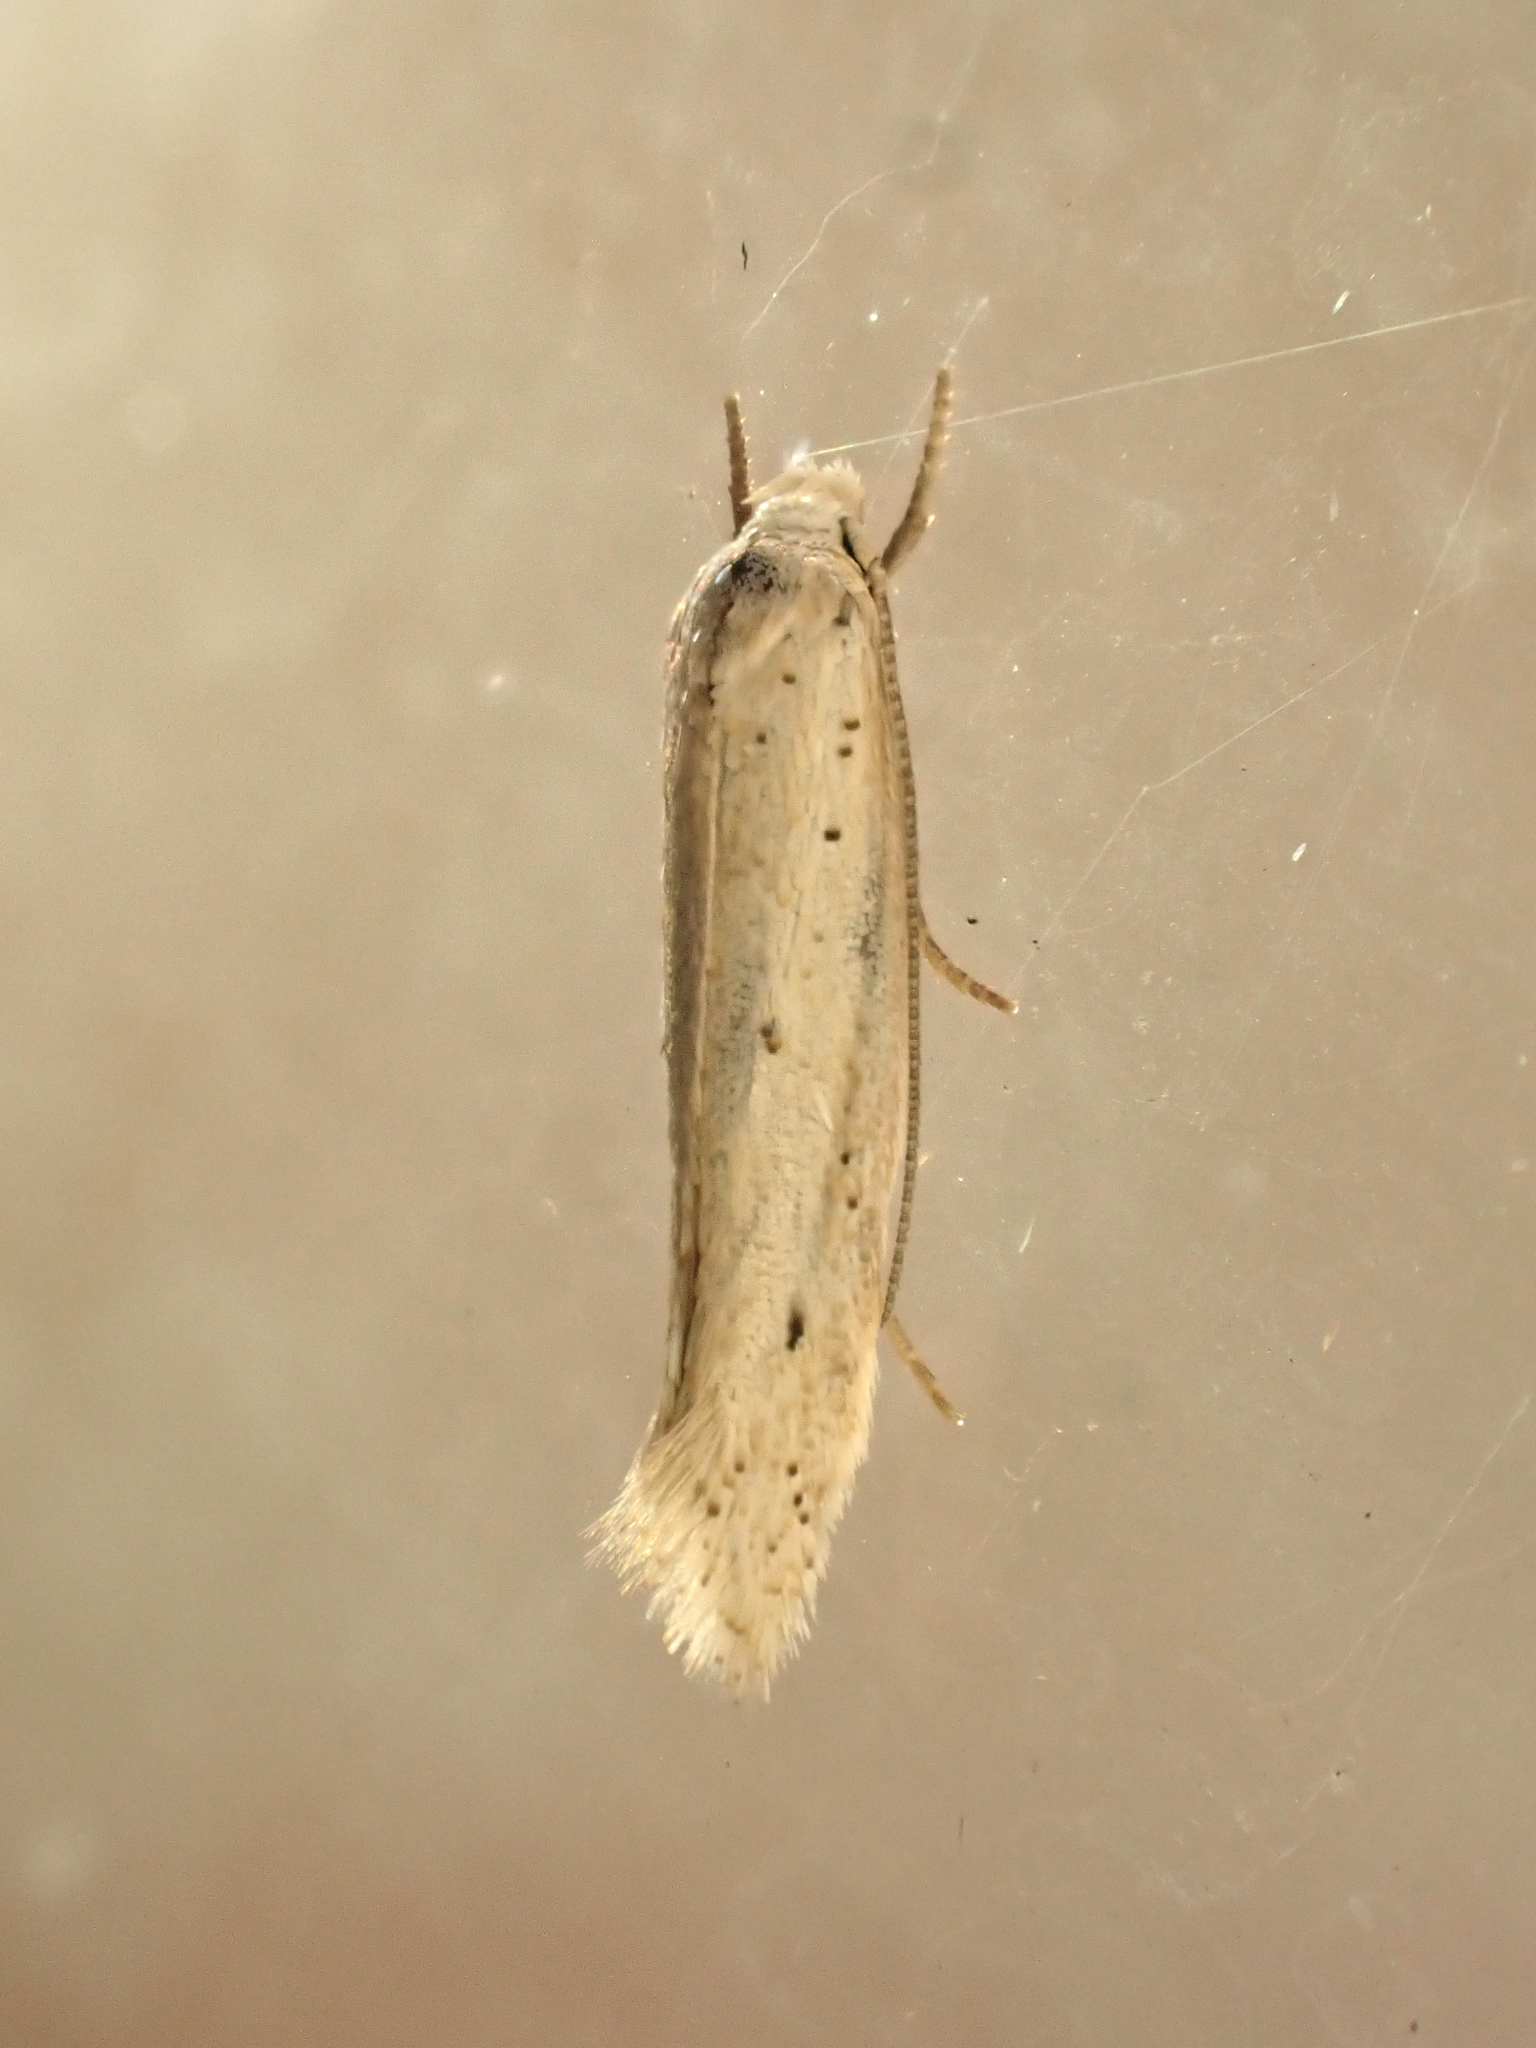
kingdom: Animalia
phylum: Arthropoda
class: Insecta
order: Lepidoptera
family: Elachistidae
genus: Elachista
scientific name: Elachista gerasmia
